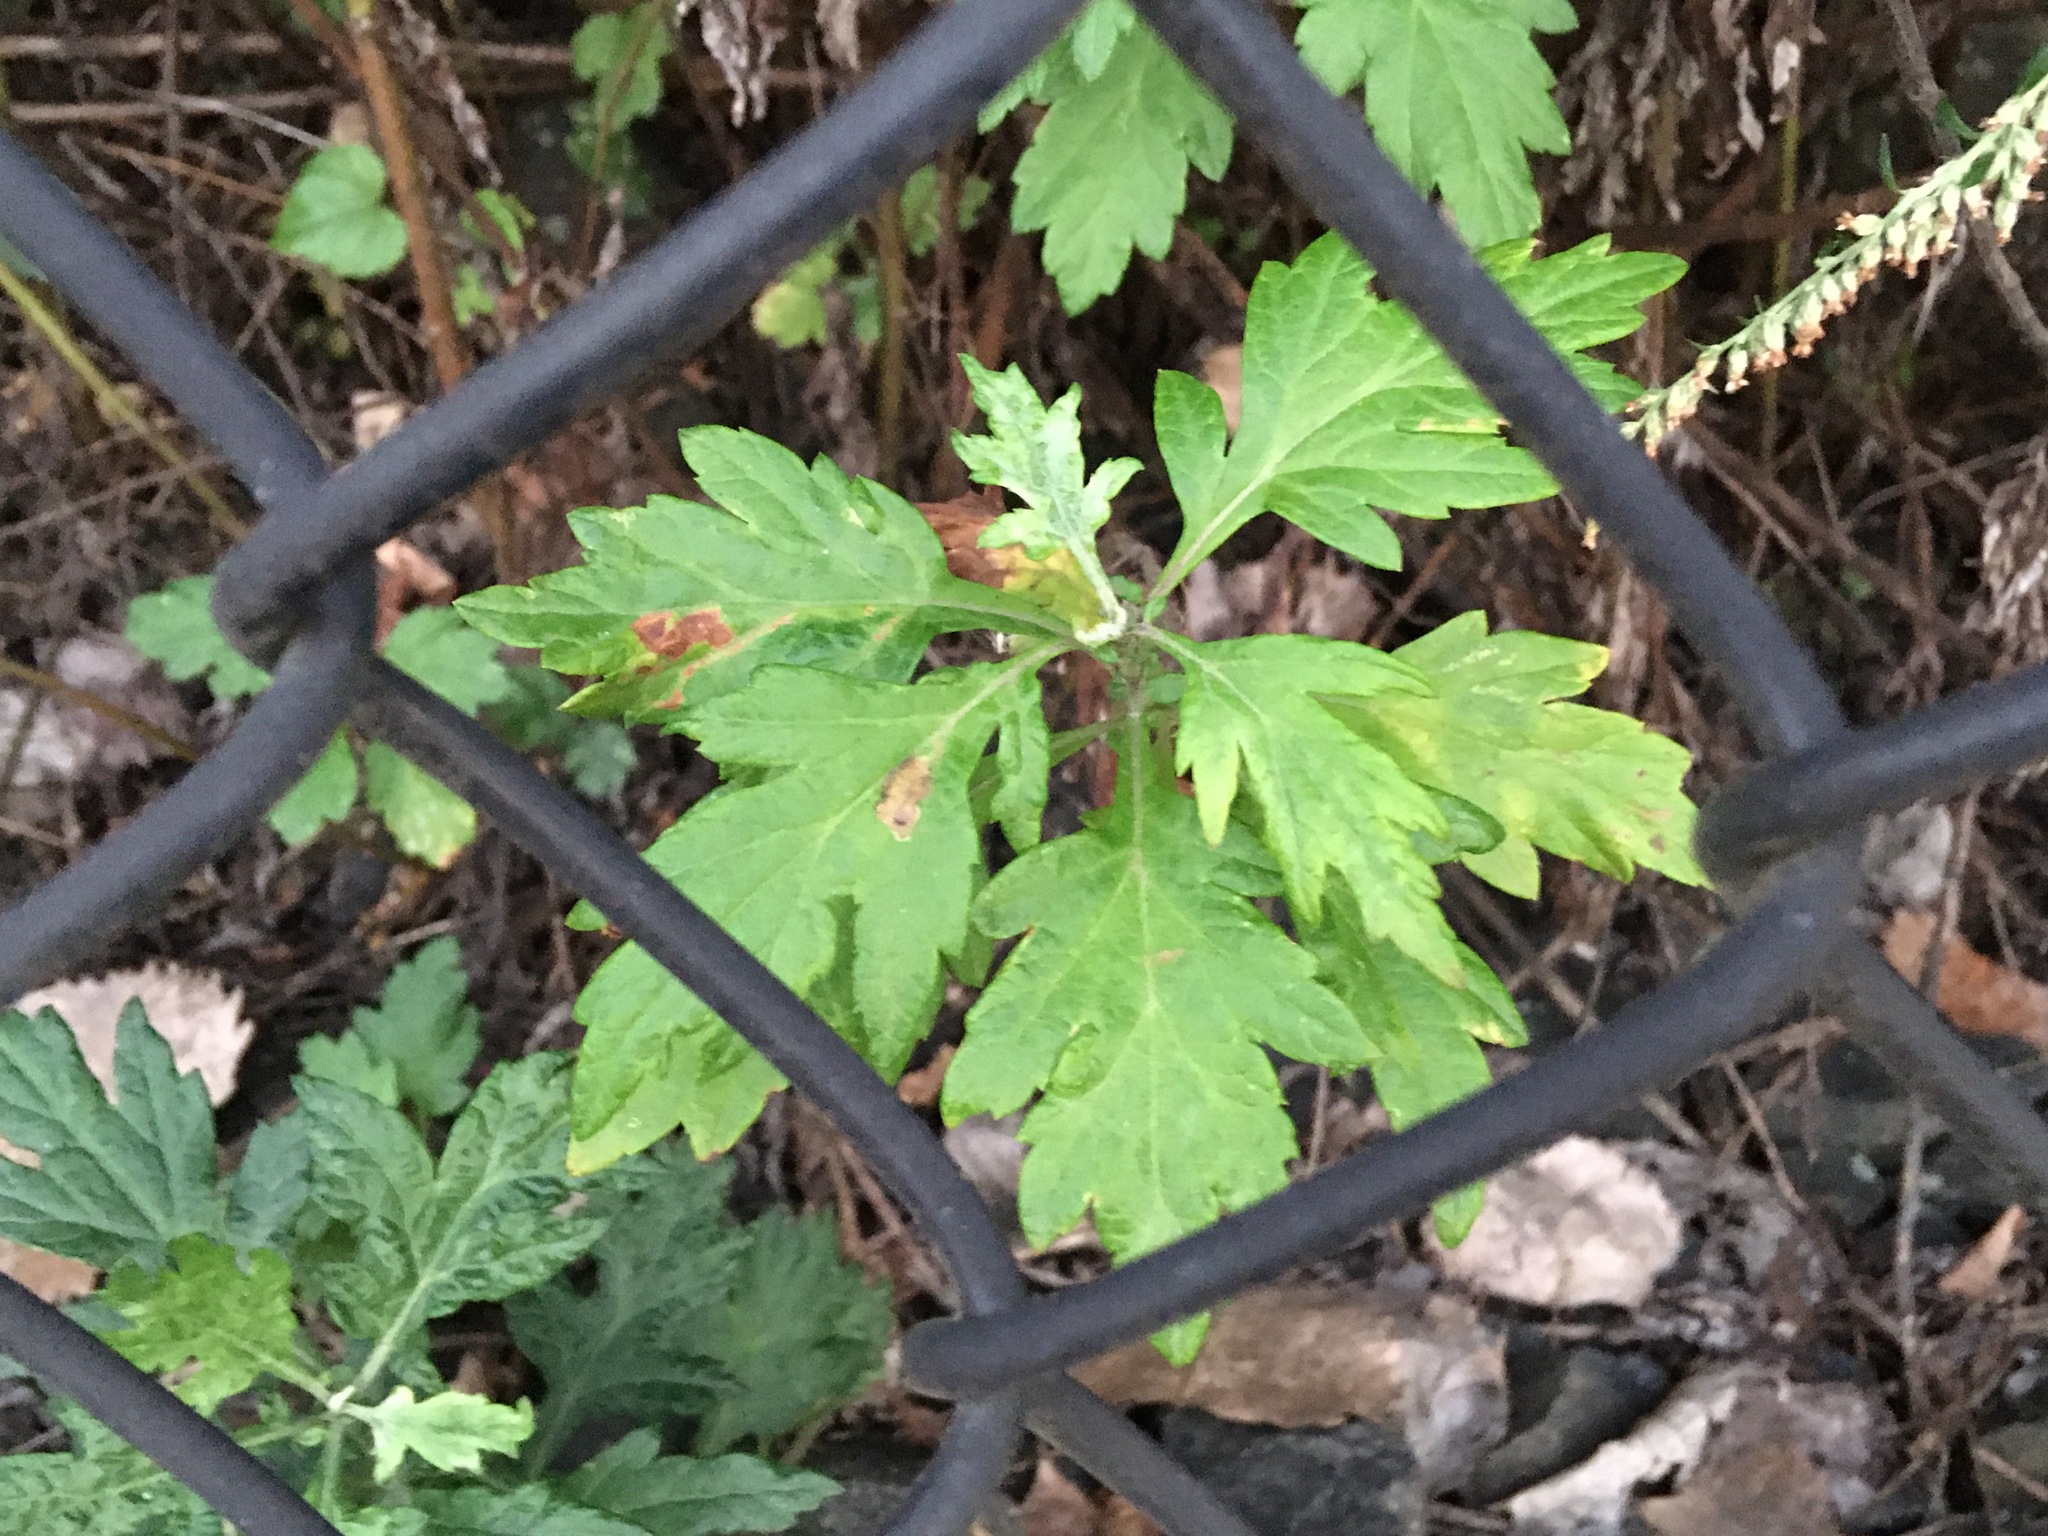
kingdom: Plantae
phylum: Tracheophyta
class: Magnoliopsida
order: Asterales
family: Asteraceae
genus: Artemisia
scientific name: Artemisia vulgaris
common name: Mugwort
